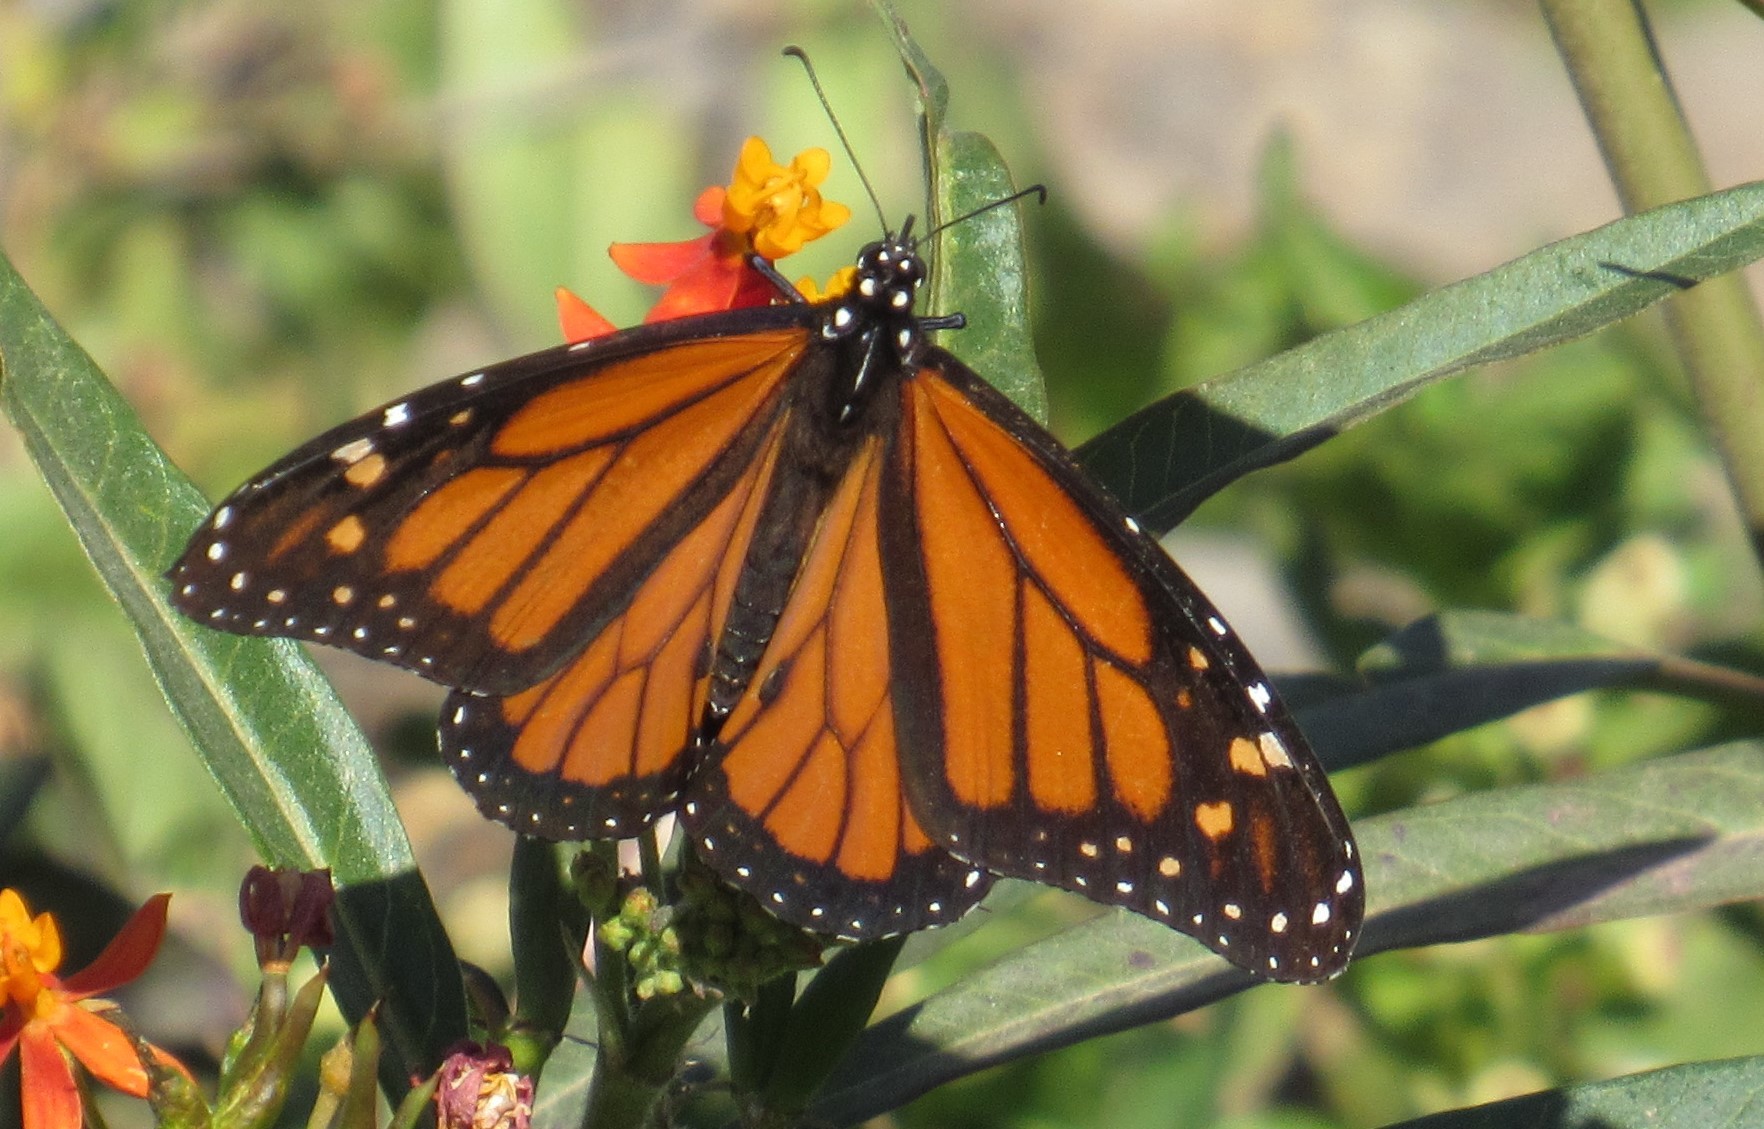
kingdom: Animalia
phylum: Arthropoda
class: Insecta
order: Lepidoptera
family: Nymphalidae
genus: Danaus
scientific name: Danaus plexippus
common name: Monarch
